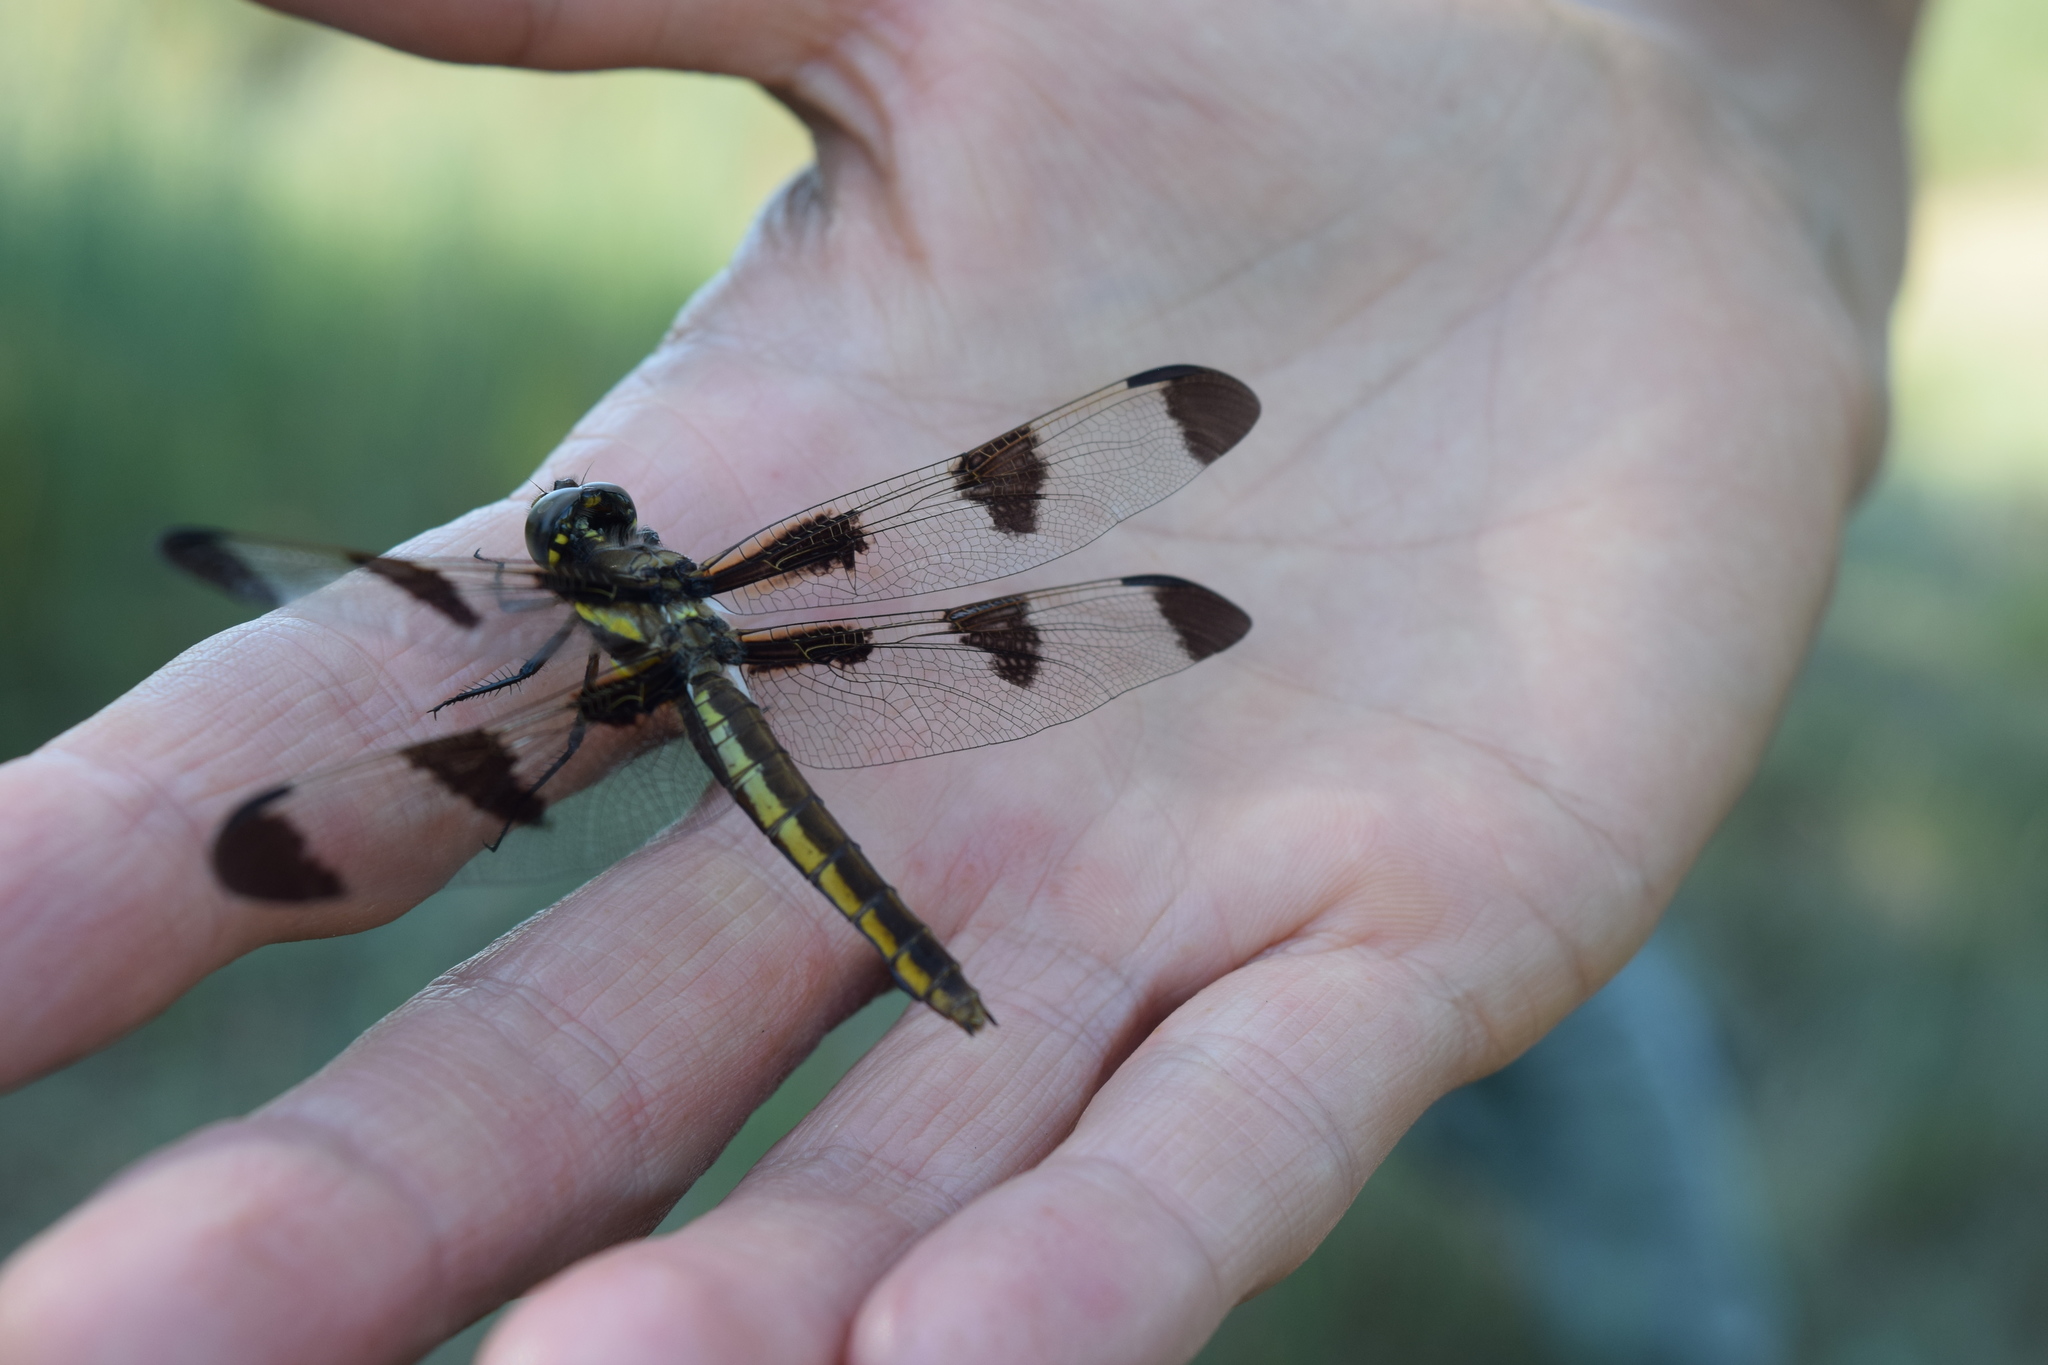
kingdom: Animalia
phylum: Arthropoda
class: Insecta
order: Odonata
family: Libellulidae
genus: Libellula
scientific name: Libellula pulchella
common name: Twelve-spotted skimmer
